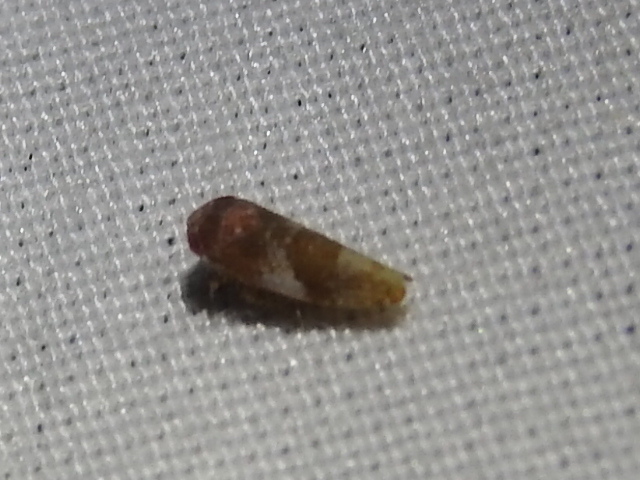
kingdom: Animalia
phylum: Arthropoda
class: Insecta
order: Hemiptera
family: Cicadellidae
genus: Norvellina
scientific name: Norvellina helenae
